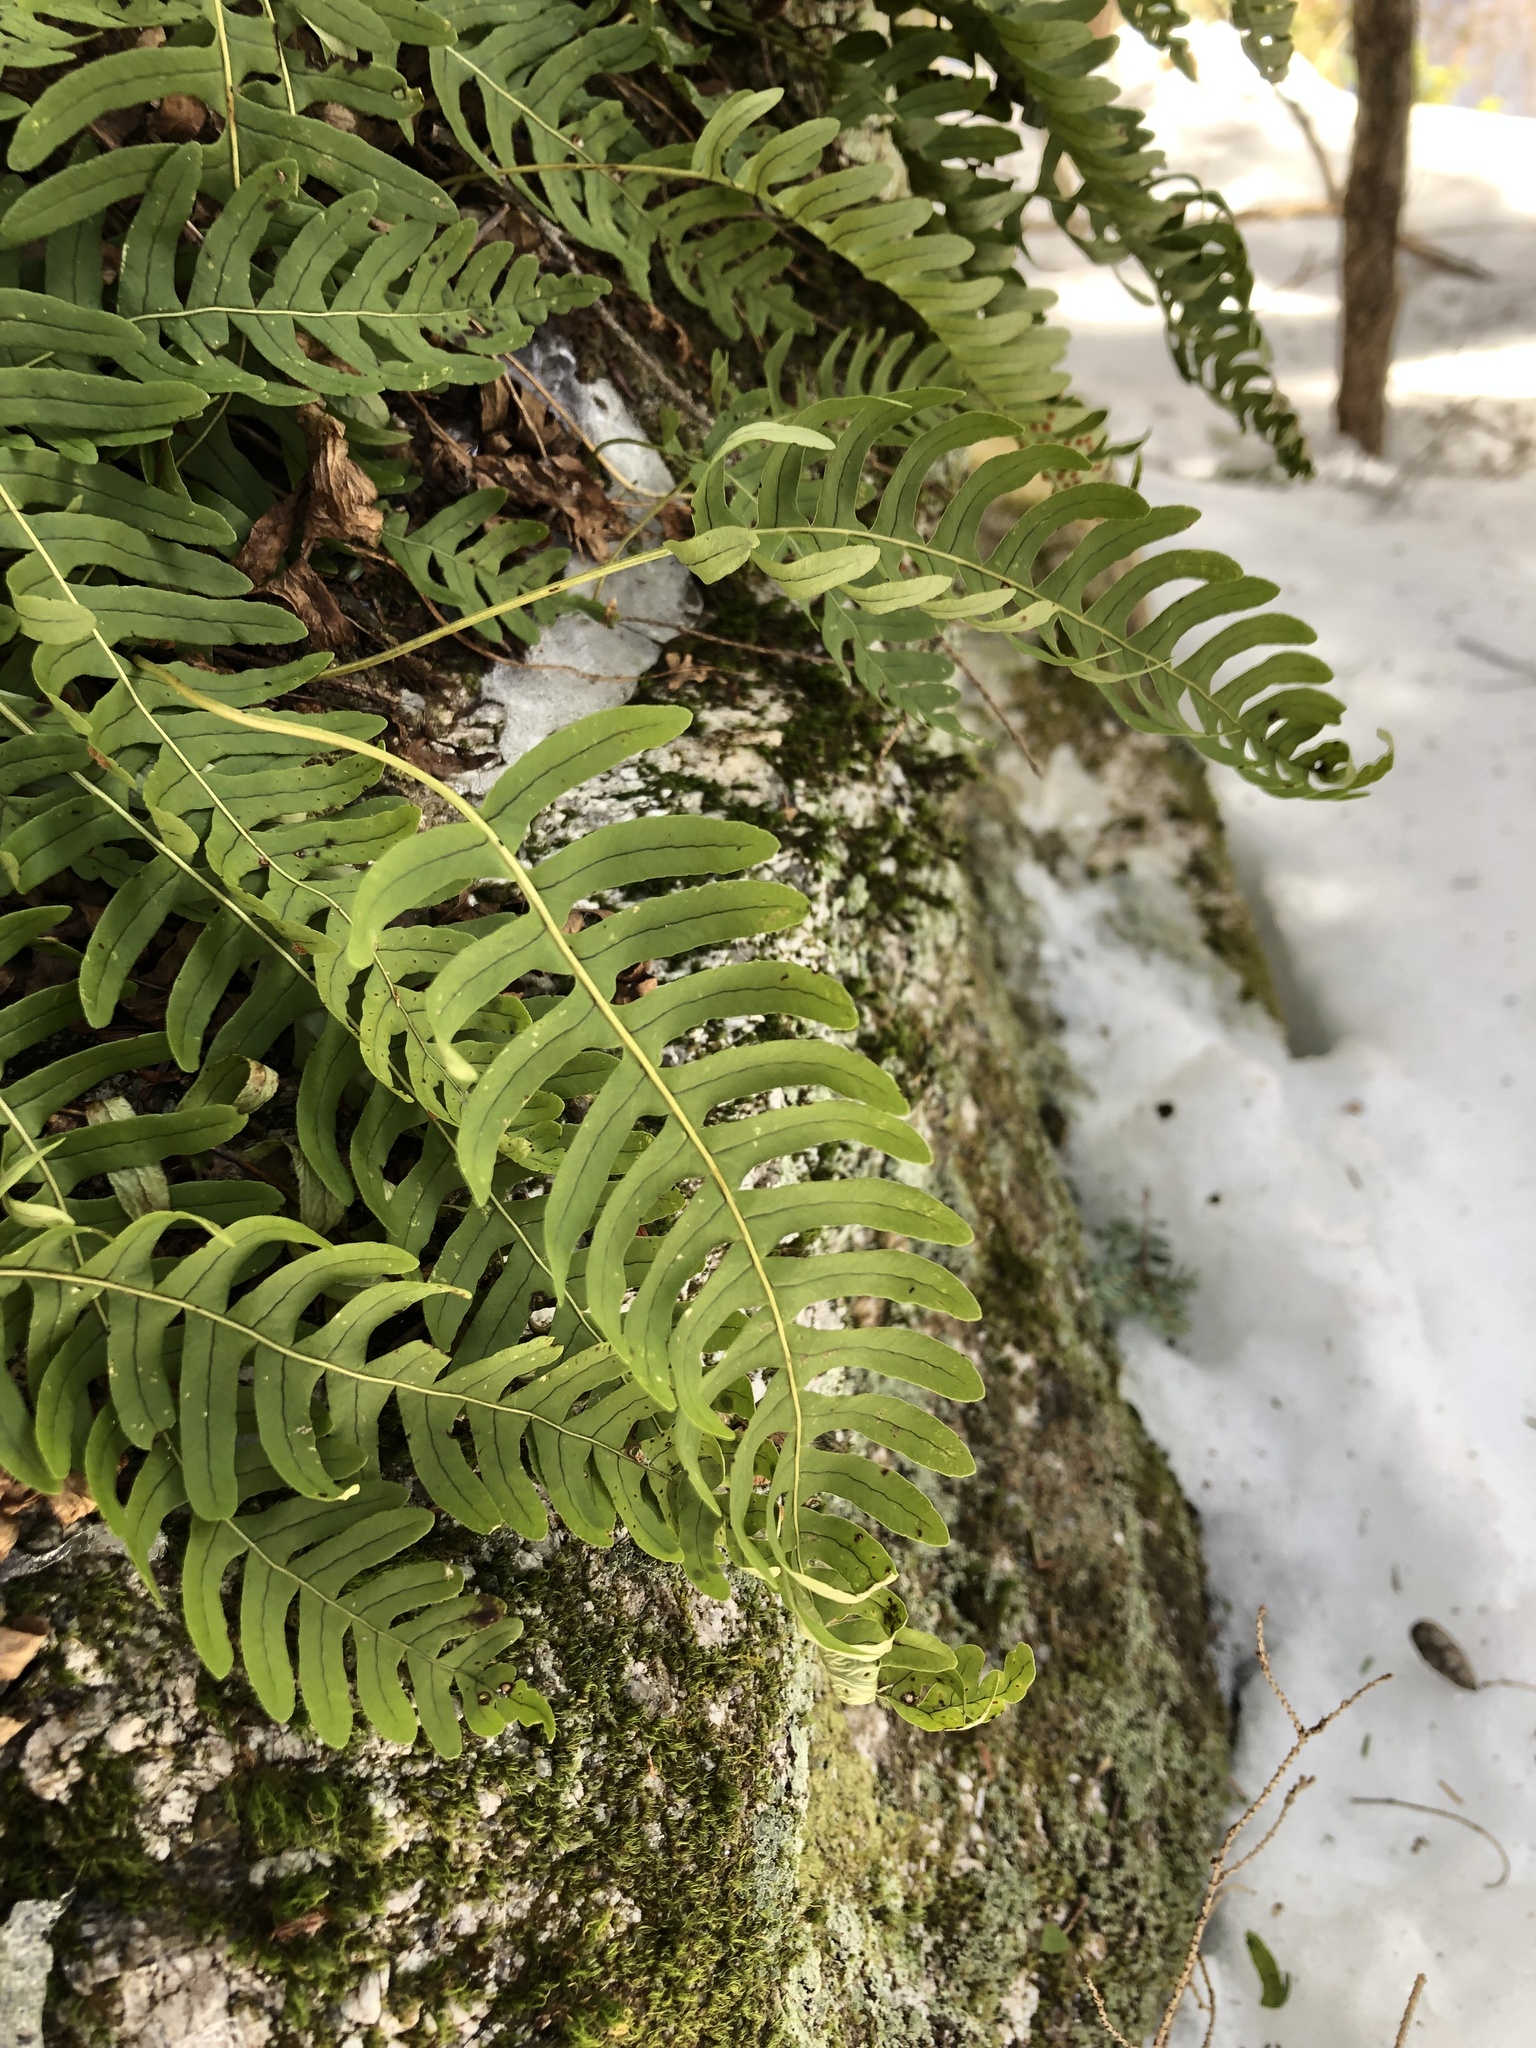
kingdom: Plantae
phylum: Tracheophyta
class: Polypodiopsida
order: Polypodiales
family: Polypodiaceae
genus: Polypodium
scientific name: Polypodium virginianum
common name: American wall fern
